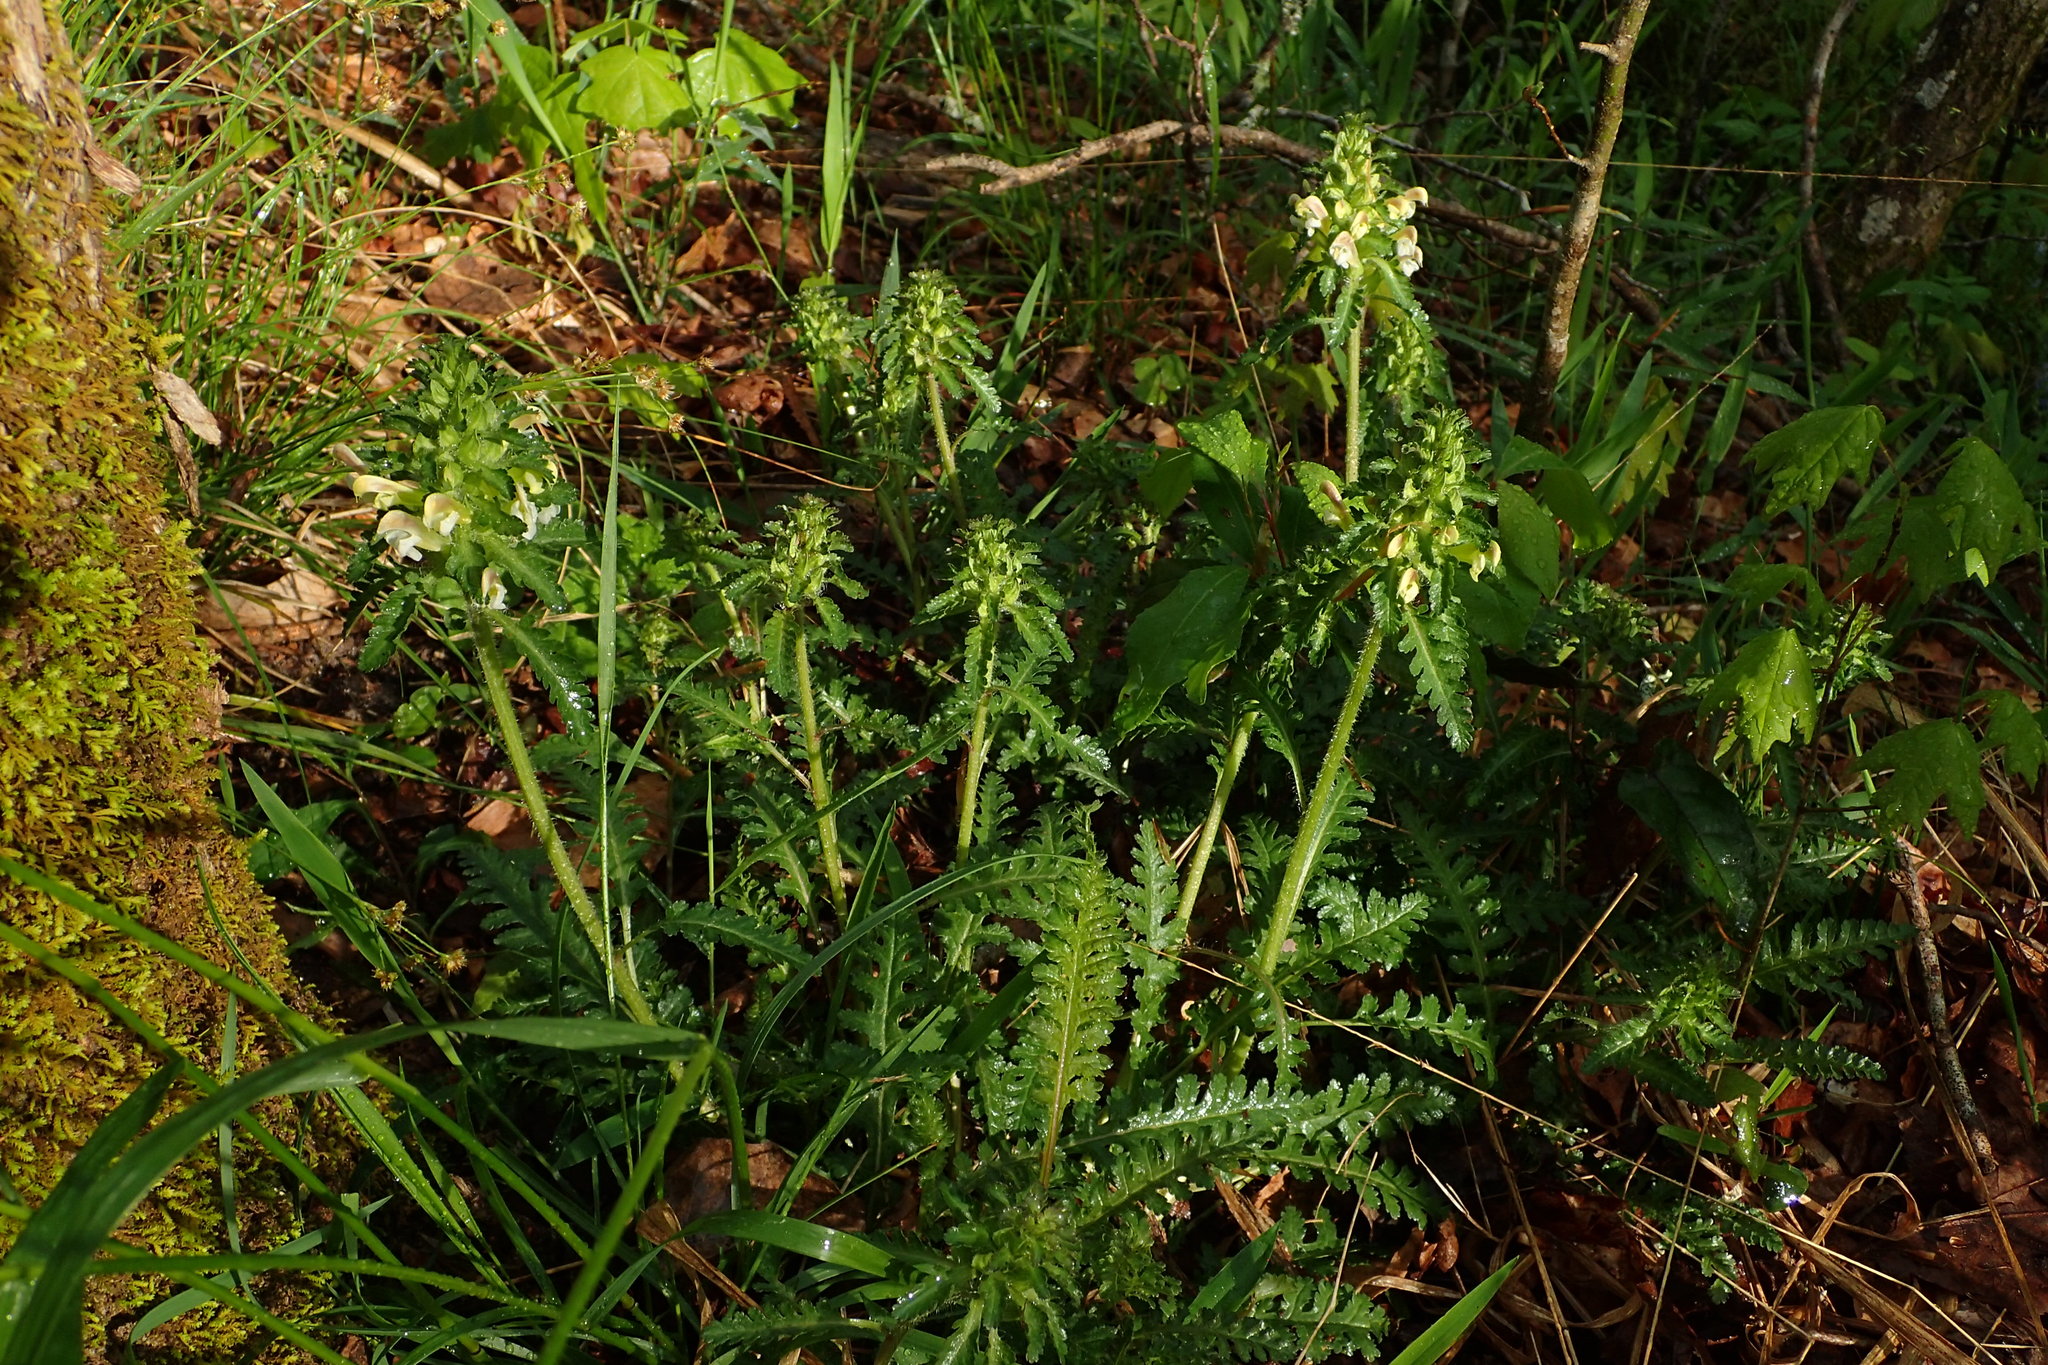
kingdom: Plantae
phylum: Tracheophyta
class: Magnoliopsida
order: Lamiales
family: Orobanchaceae
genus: Pedicularis
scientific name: Pedicularis canadensis
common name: Early lousewort
